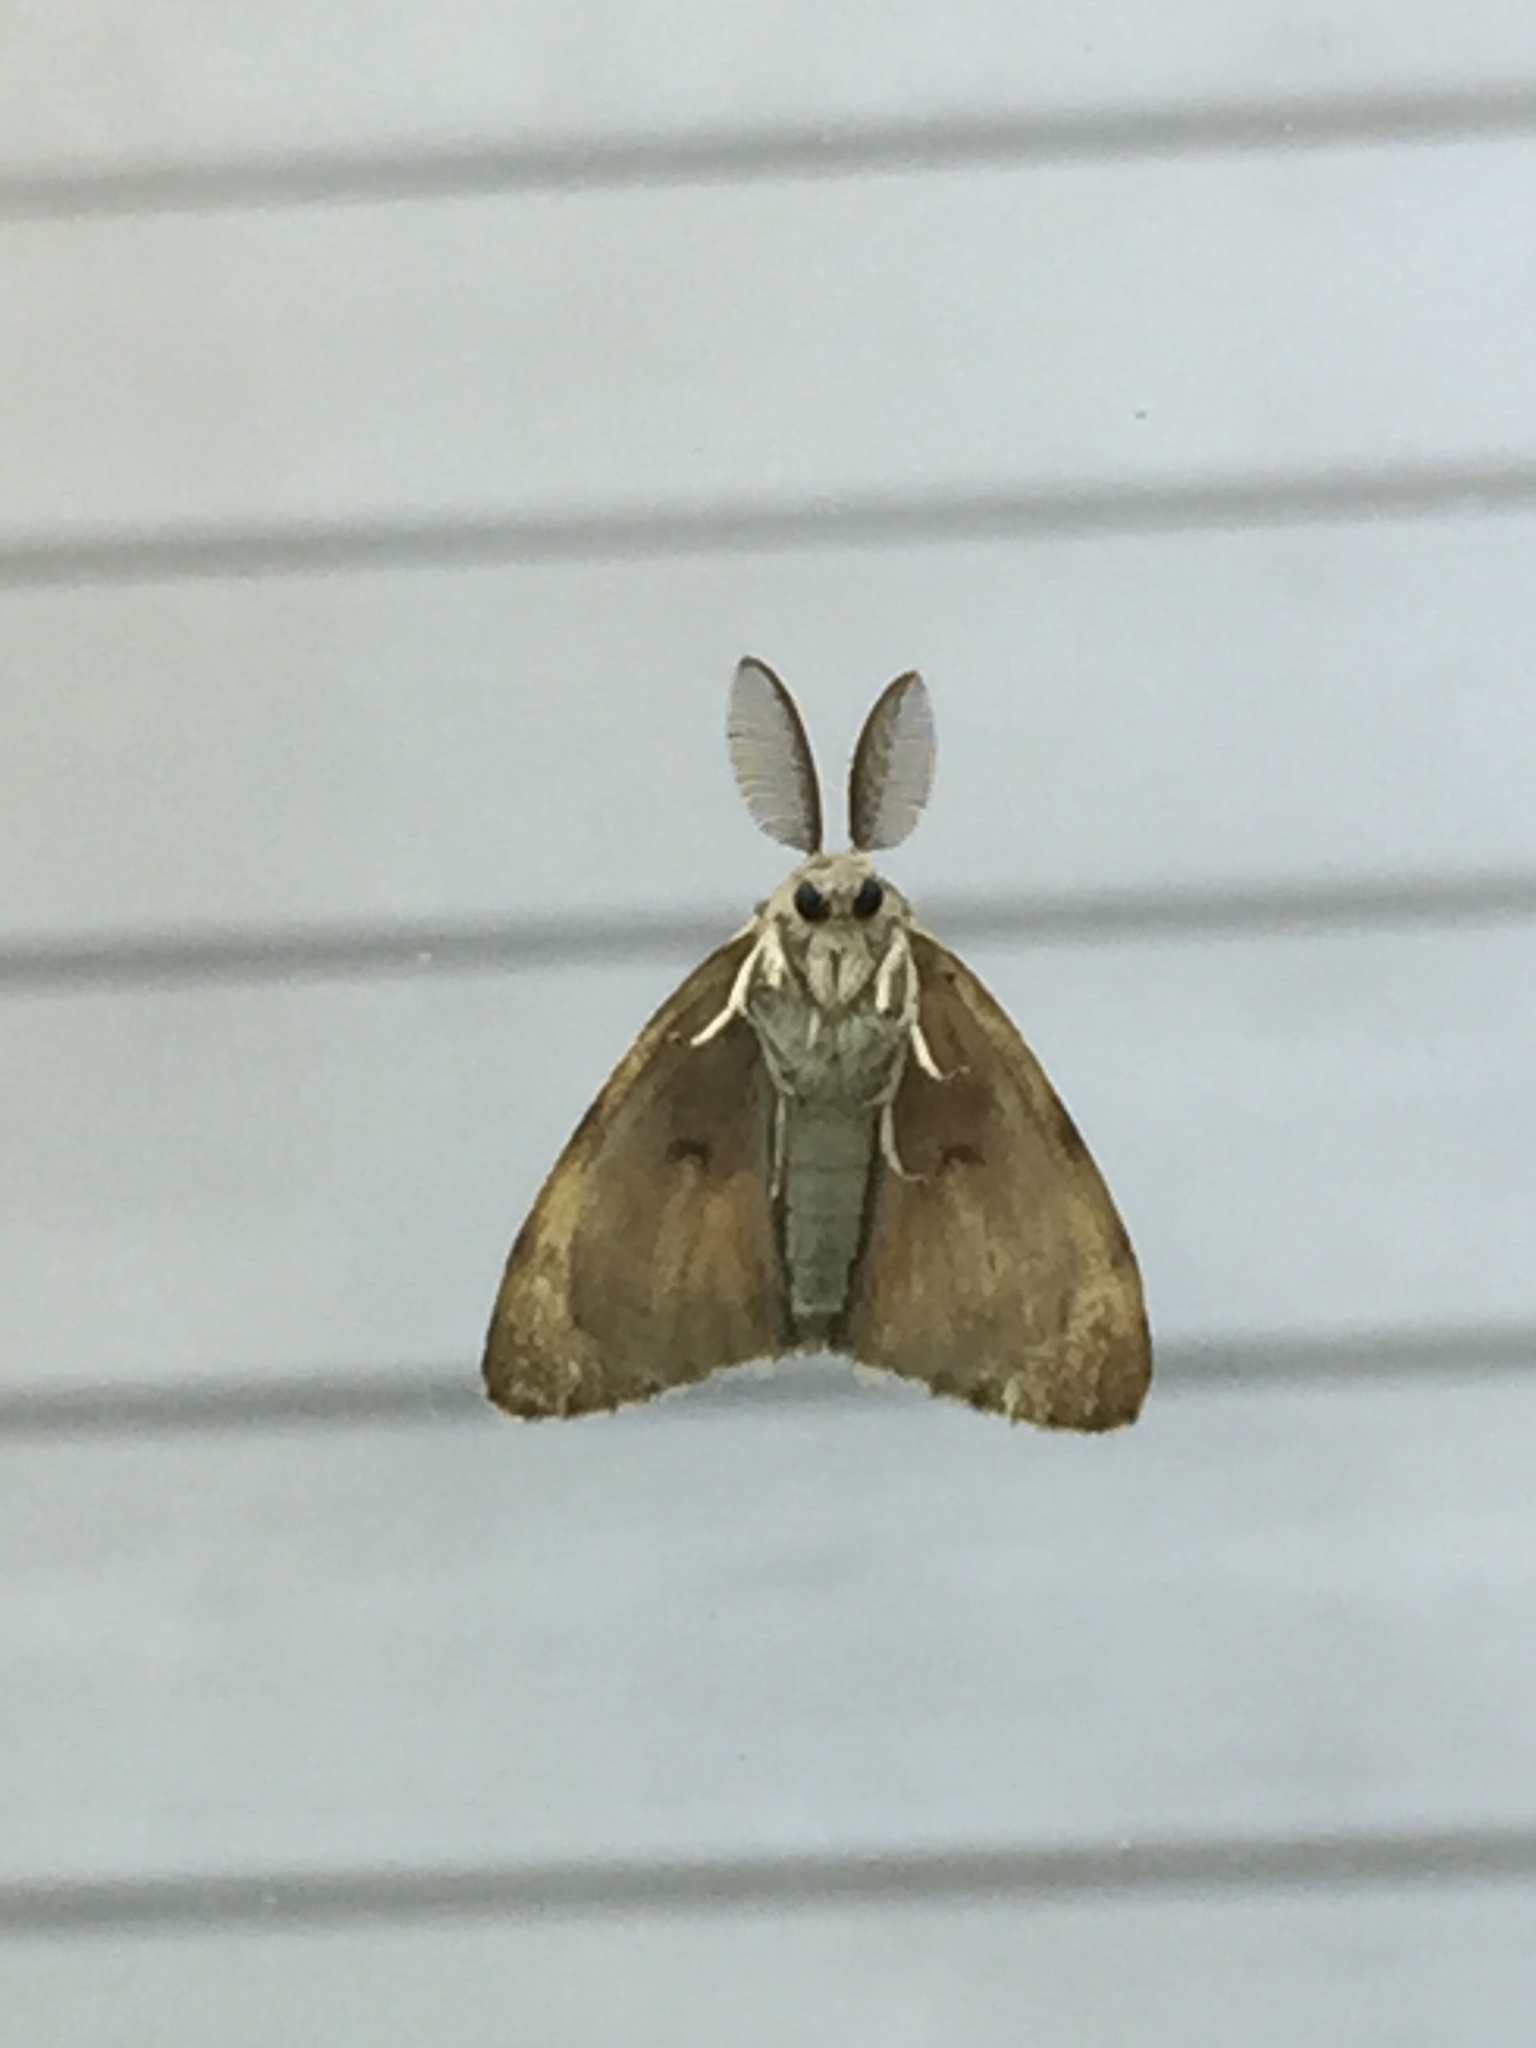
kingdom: Animalia
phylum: Arthropoda
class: Insecta
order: Lepidoptera
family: Erebidae
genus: Lymantria
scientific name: Lymantria dispar
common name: Gypsy moth
